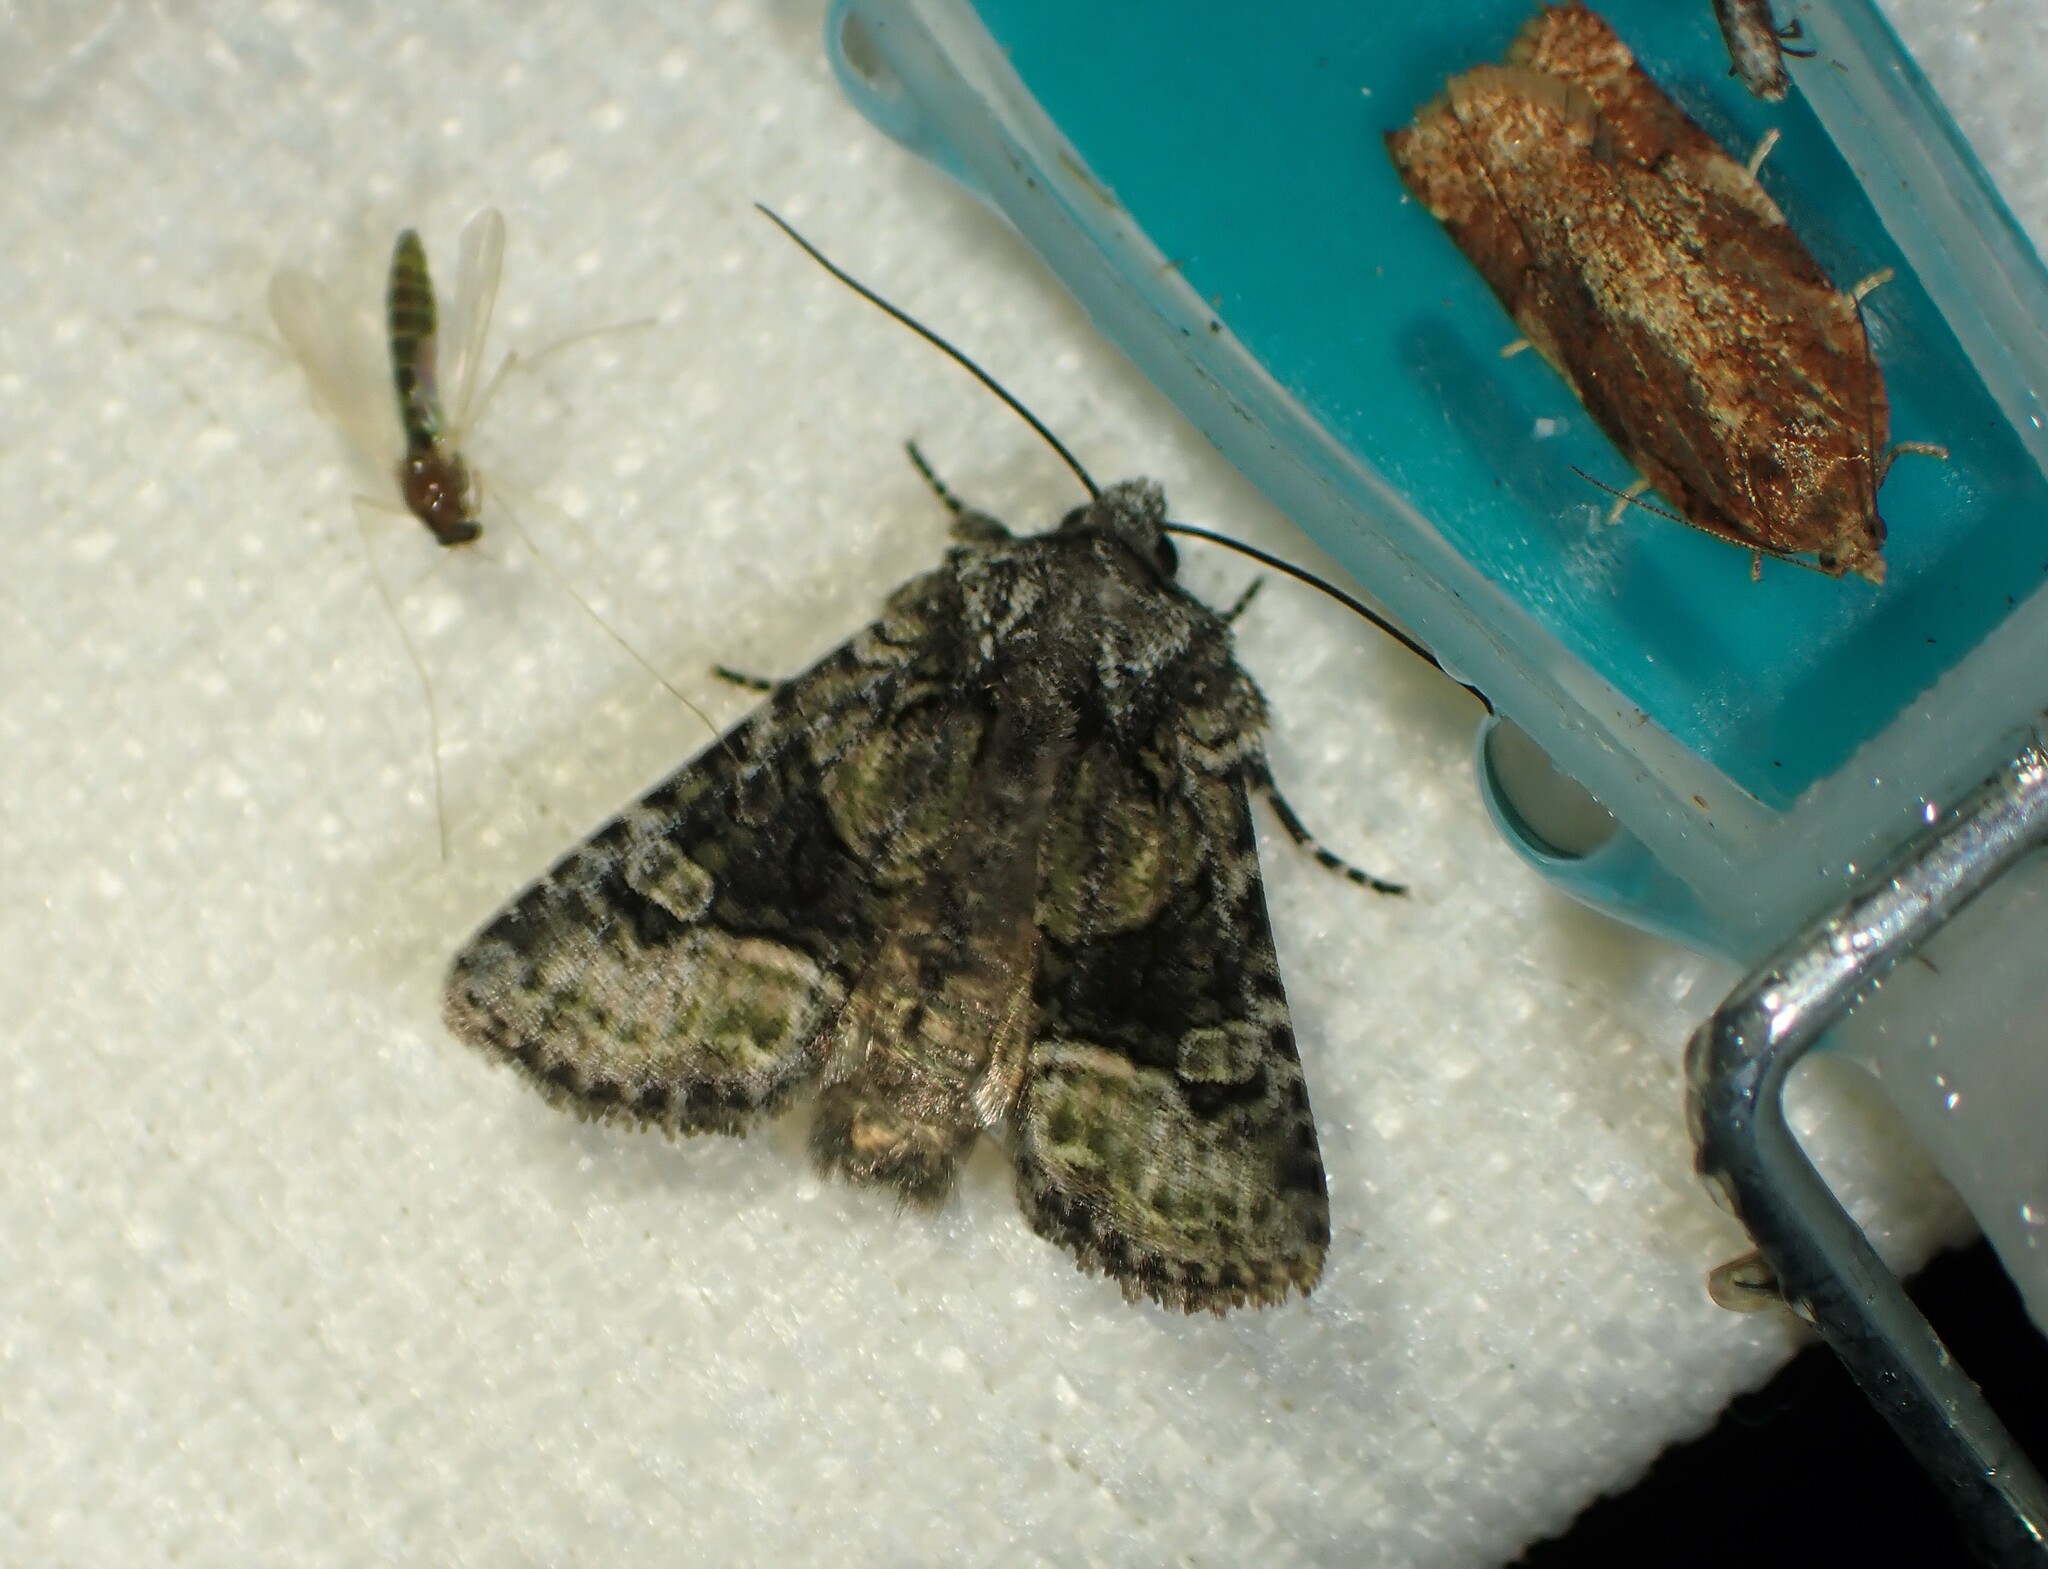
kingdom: Animalia
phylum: Arthropoda
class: Insecta
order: Lepidoptera
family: Noctuidae
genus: Lacinipolia
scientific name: Lacinipolia olivacea
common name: Olive arches moth
